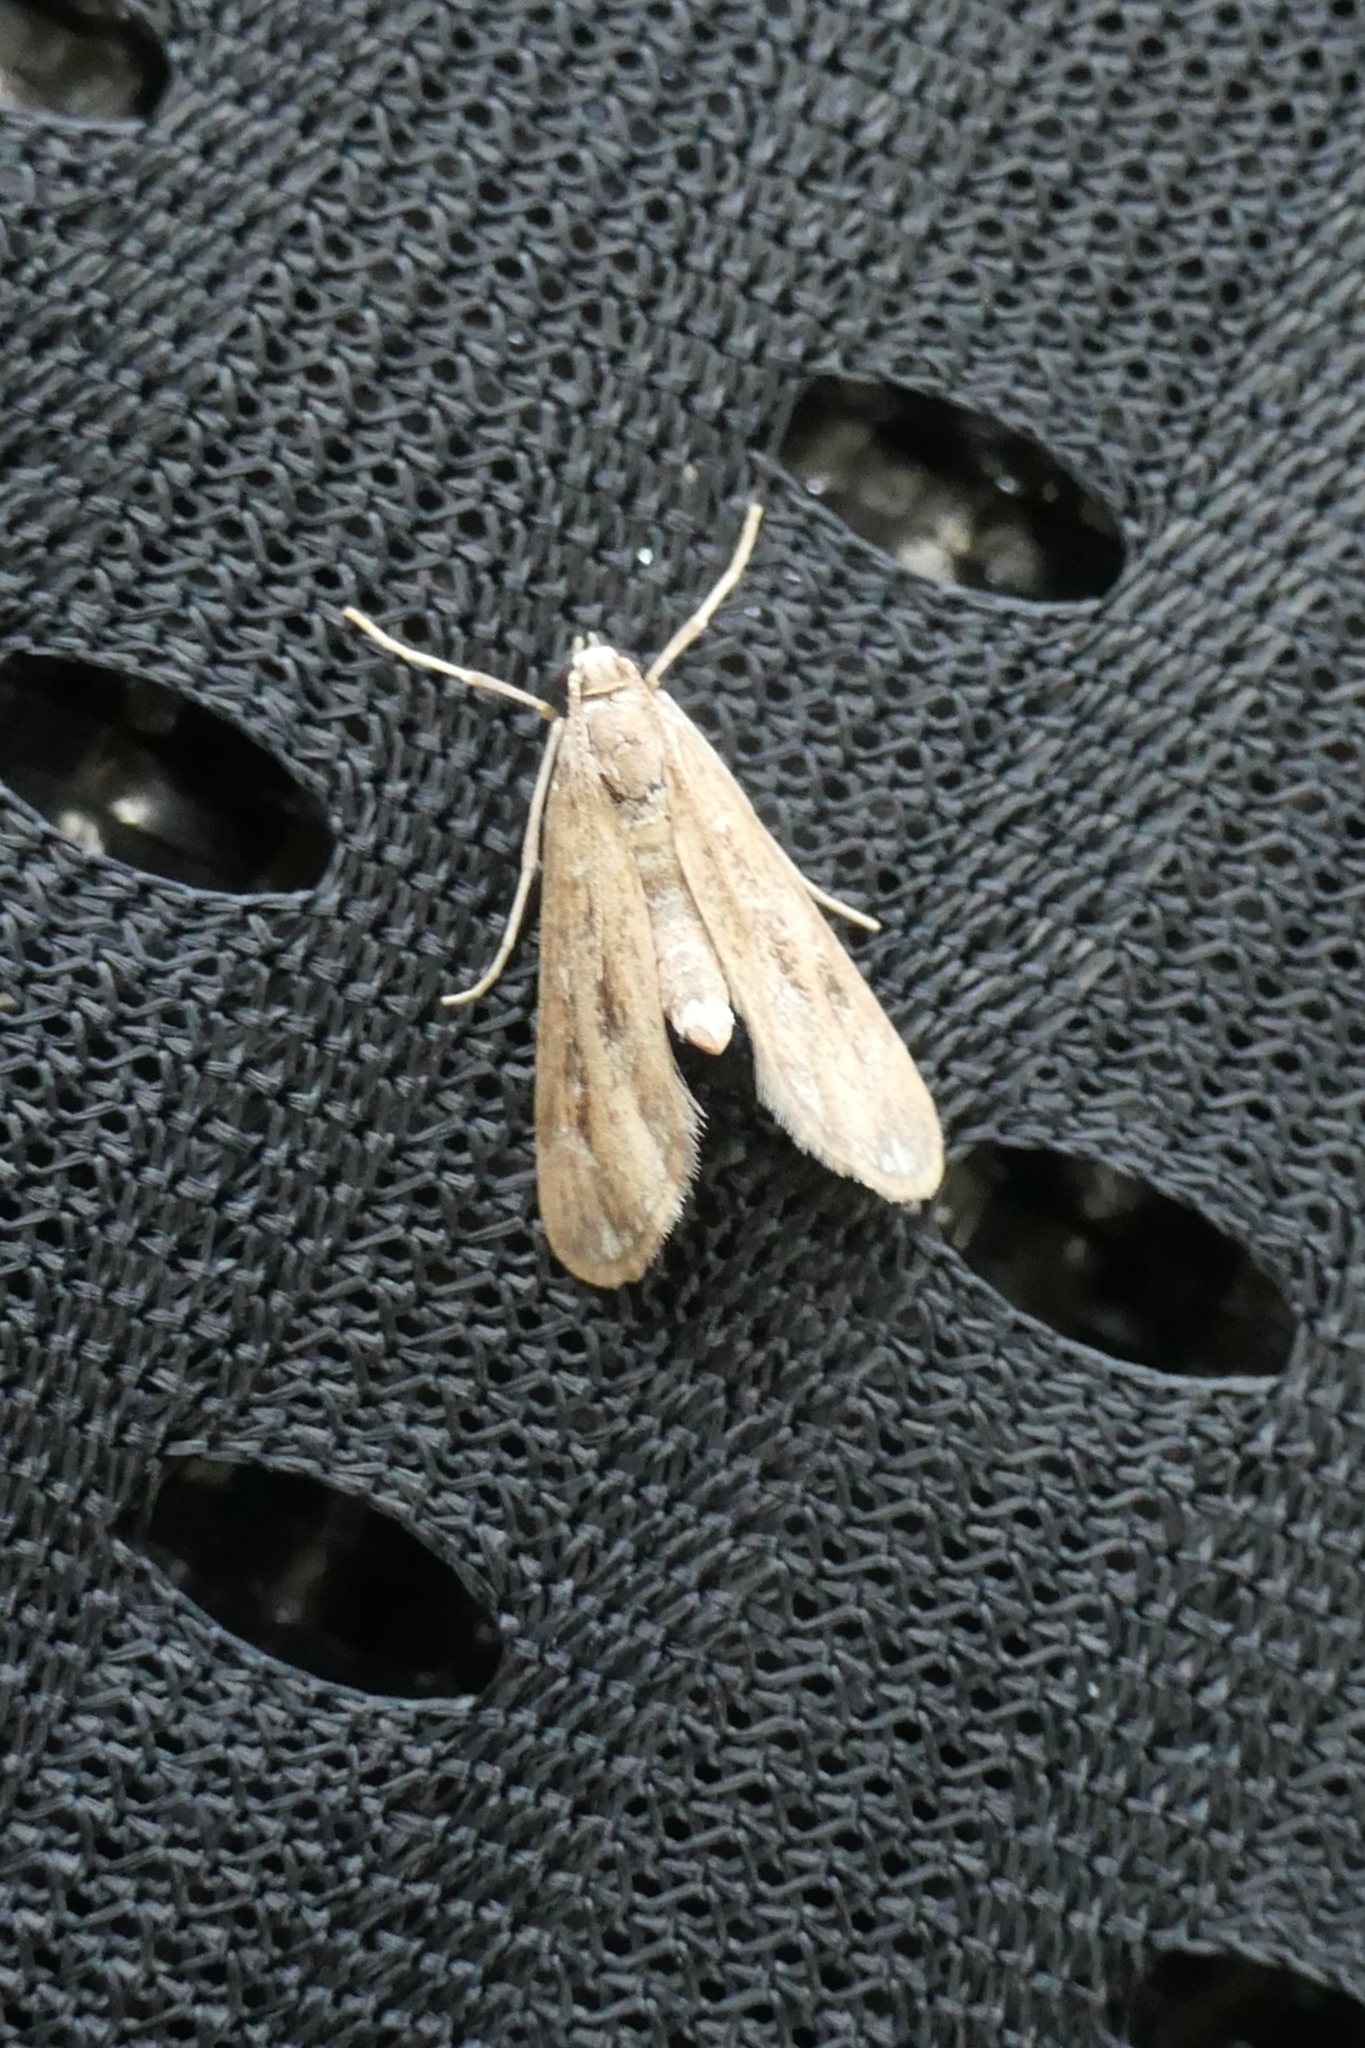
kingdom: Animalia
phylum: Arthropoda
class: Insecta
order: Lepidoptera
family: Crambidae
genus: Hygraula
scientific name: Hygraula nitens
